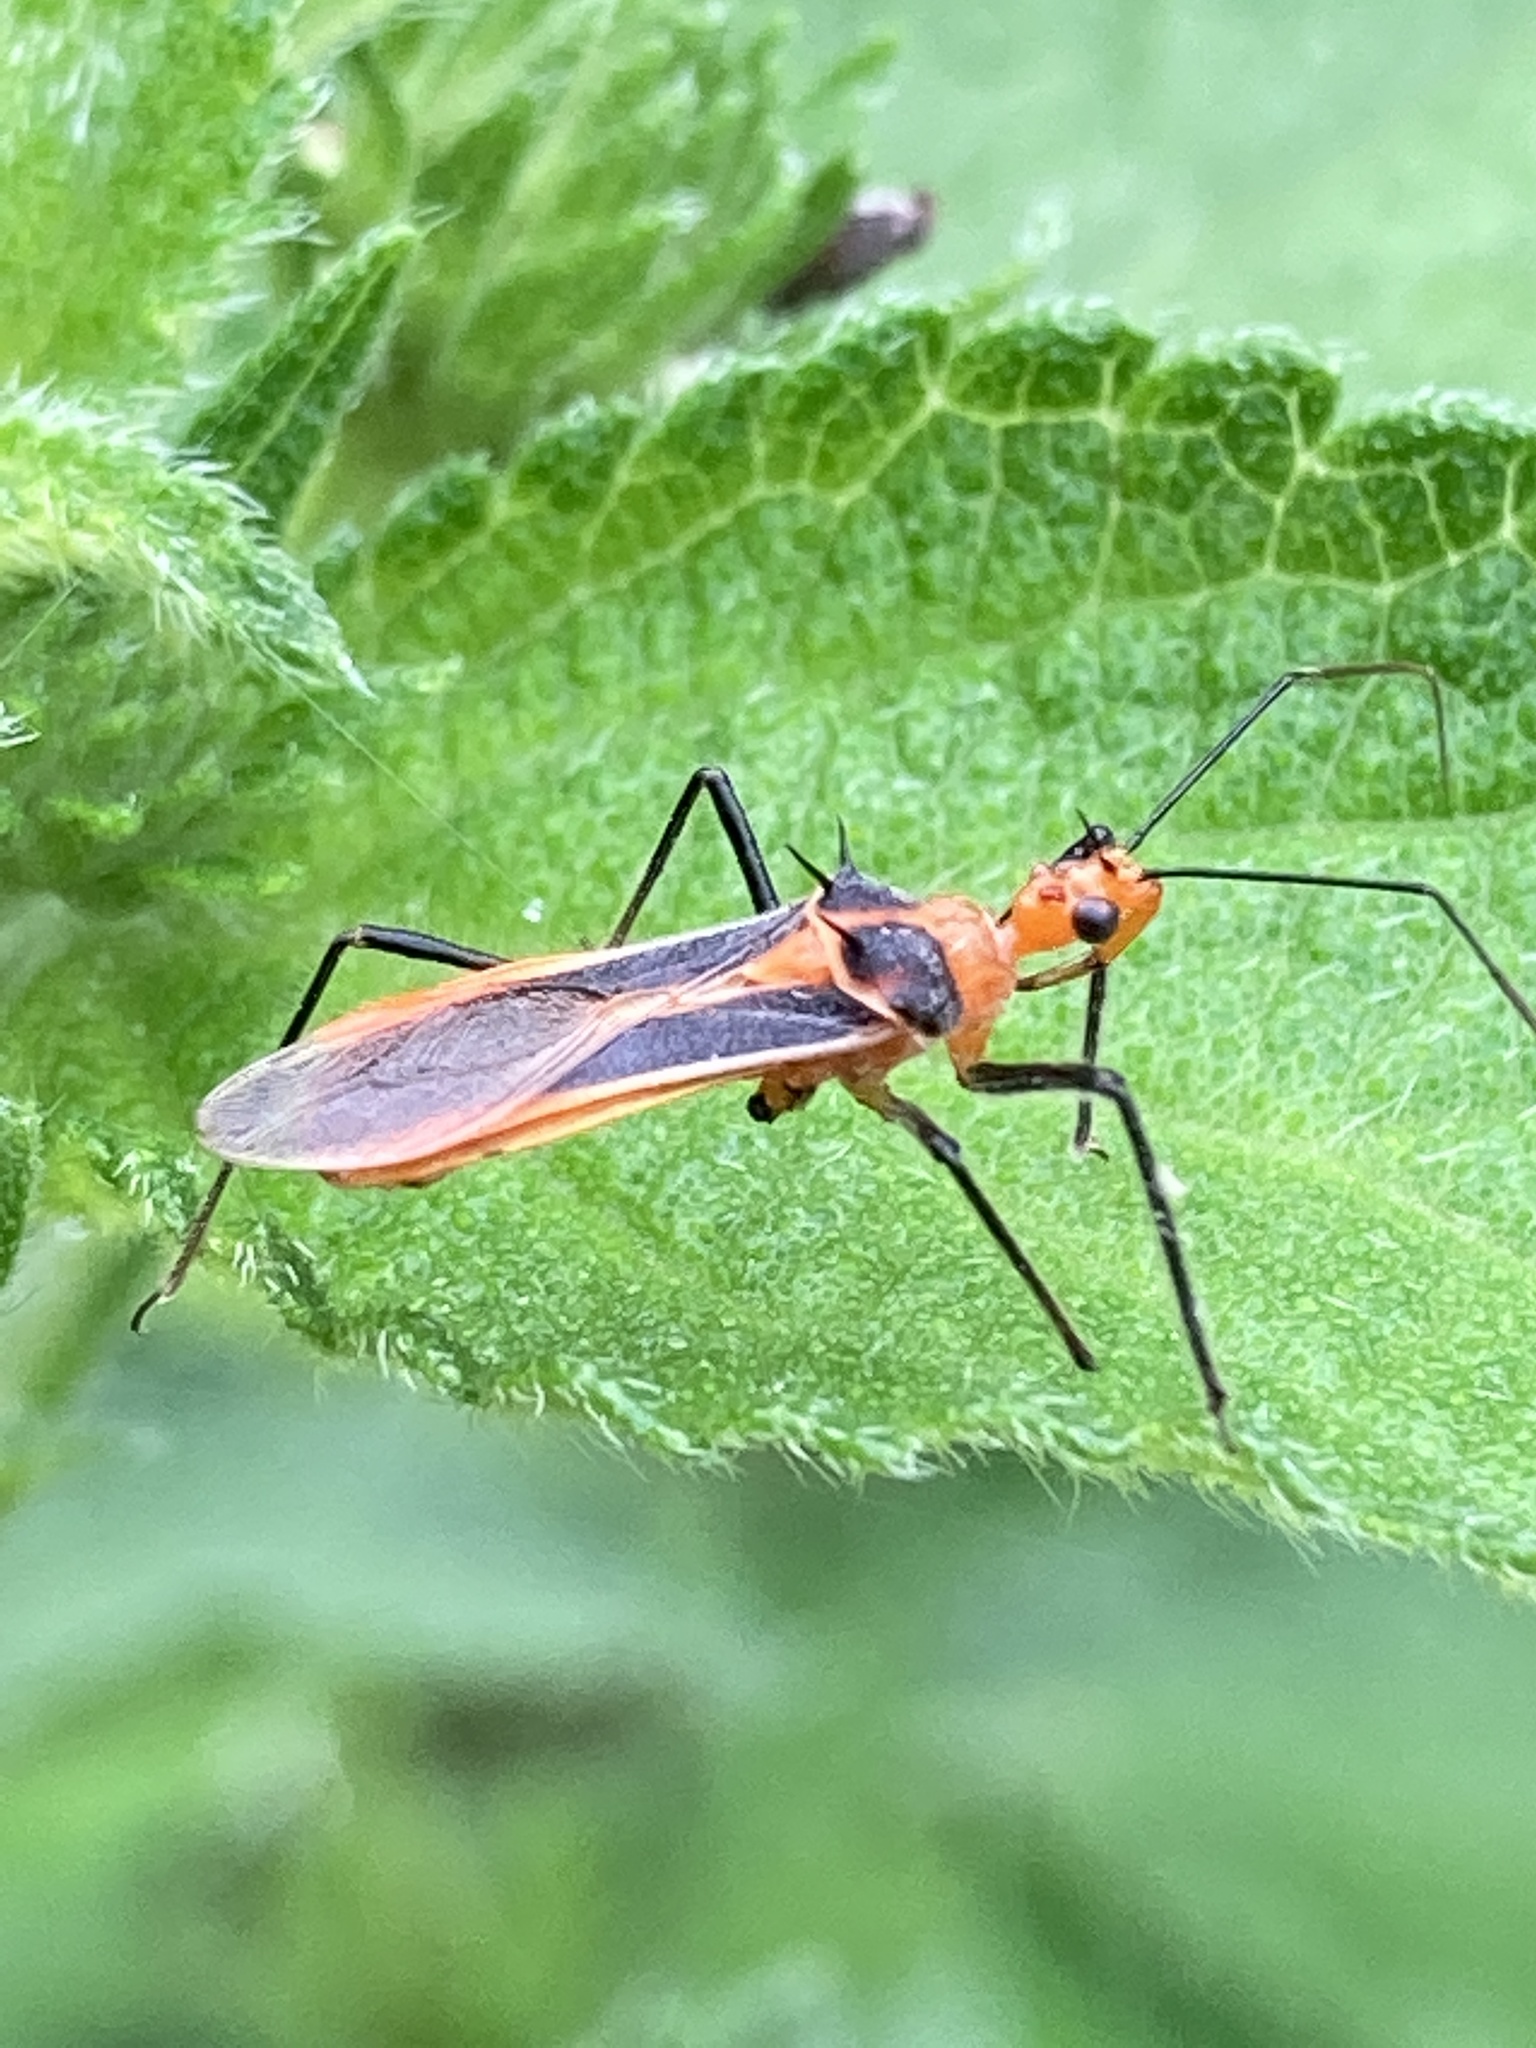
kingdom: Animalia
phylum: Arthropoda
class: Insecta
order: Hemiptera
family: Reduviidae
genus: Repipta
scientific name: Repipta taurus
